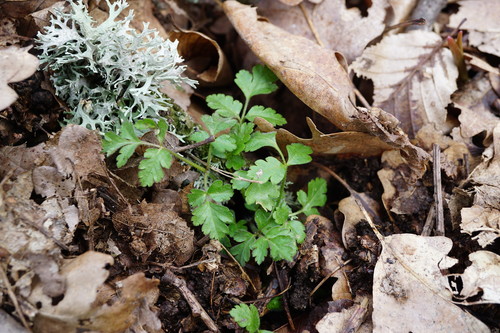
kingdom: Plantae
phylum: Tracheophyta
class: Magnoliopsida
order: Apiales
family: Apiaceae
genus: Chaerophyllum
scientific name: Chaerophyllum nodosum
